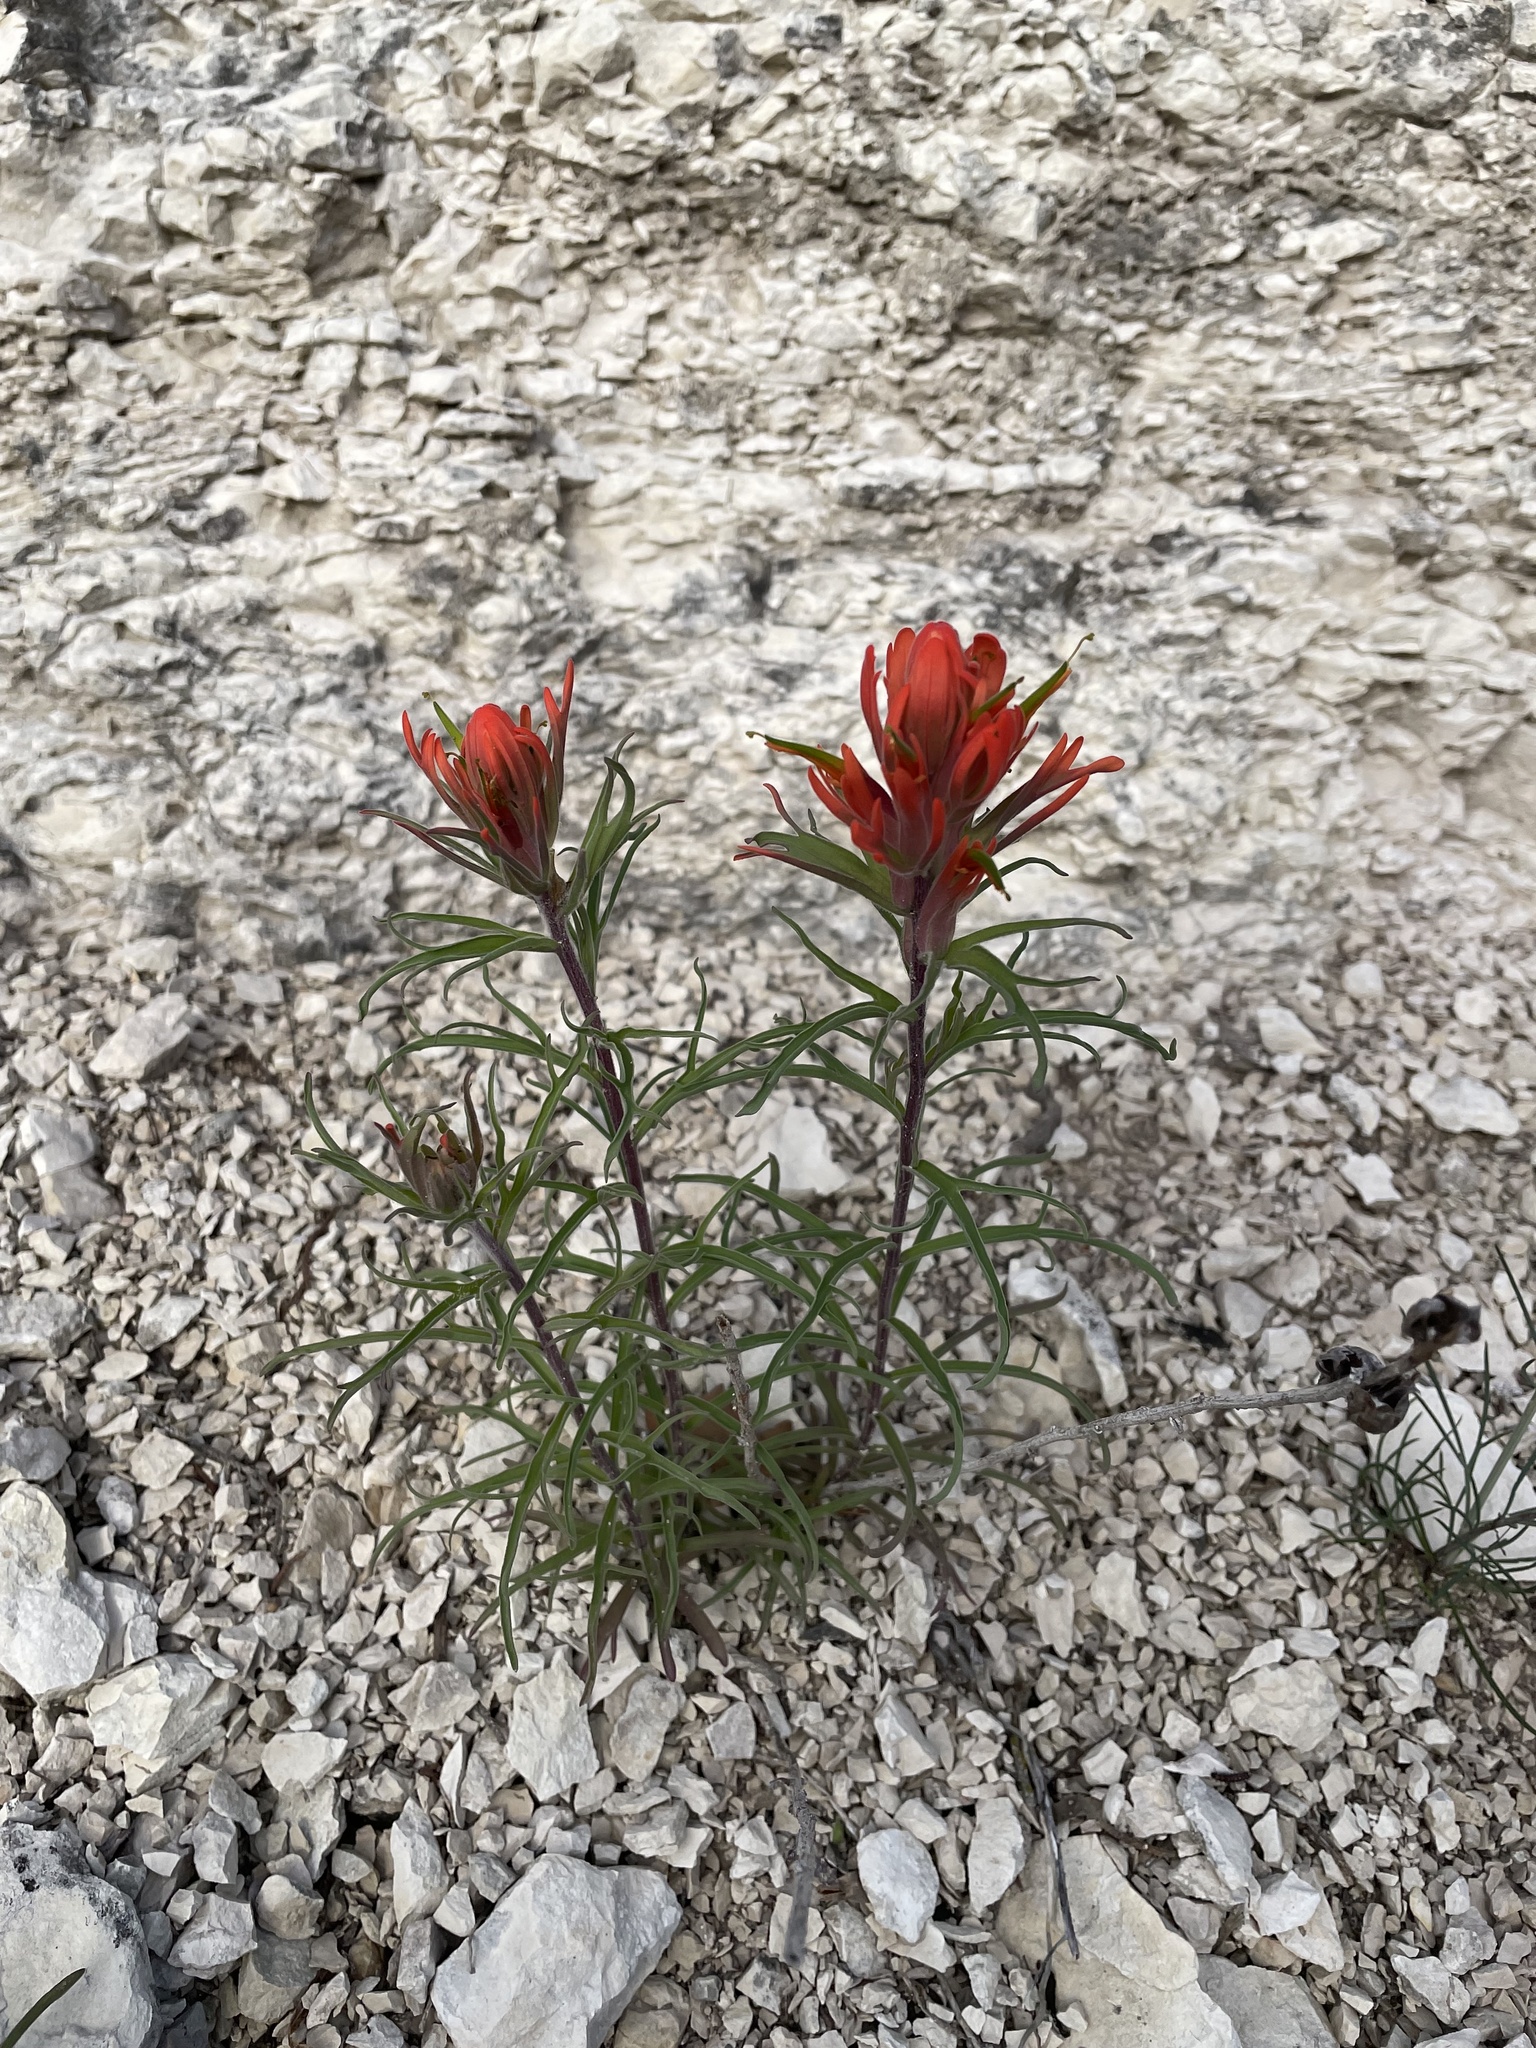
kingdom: Plantae
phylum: Tracheophyta
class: Magnoliopsida
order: Lamiales
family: Orobanchaceae
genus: Castilleja
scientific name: Castilleja lindheimeri
